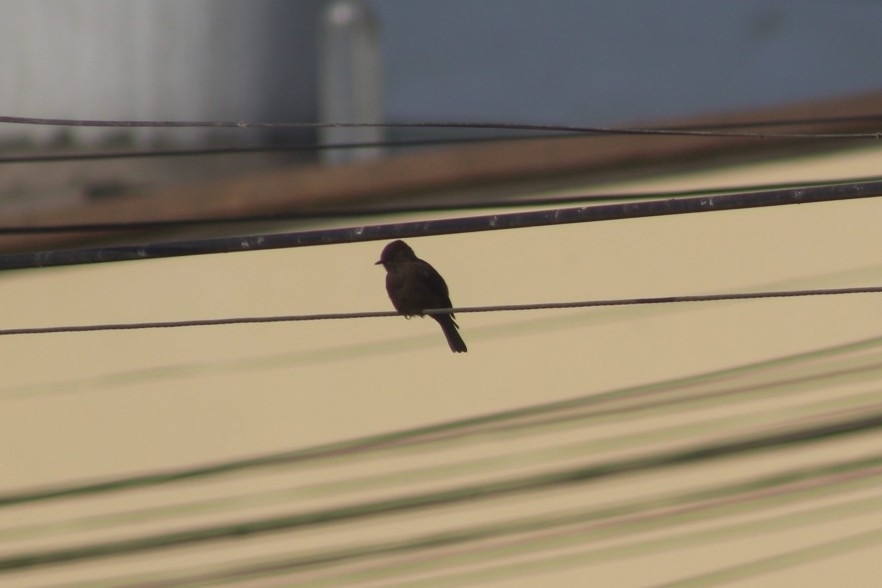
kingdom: Animalia
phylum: Chordata
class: Aves
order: Passeriformes
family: Tyrannidae
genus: Pyrocephalus
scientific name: Pyrocephalus rubinus
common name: Vermilion flycatcher
